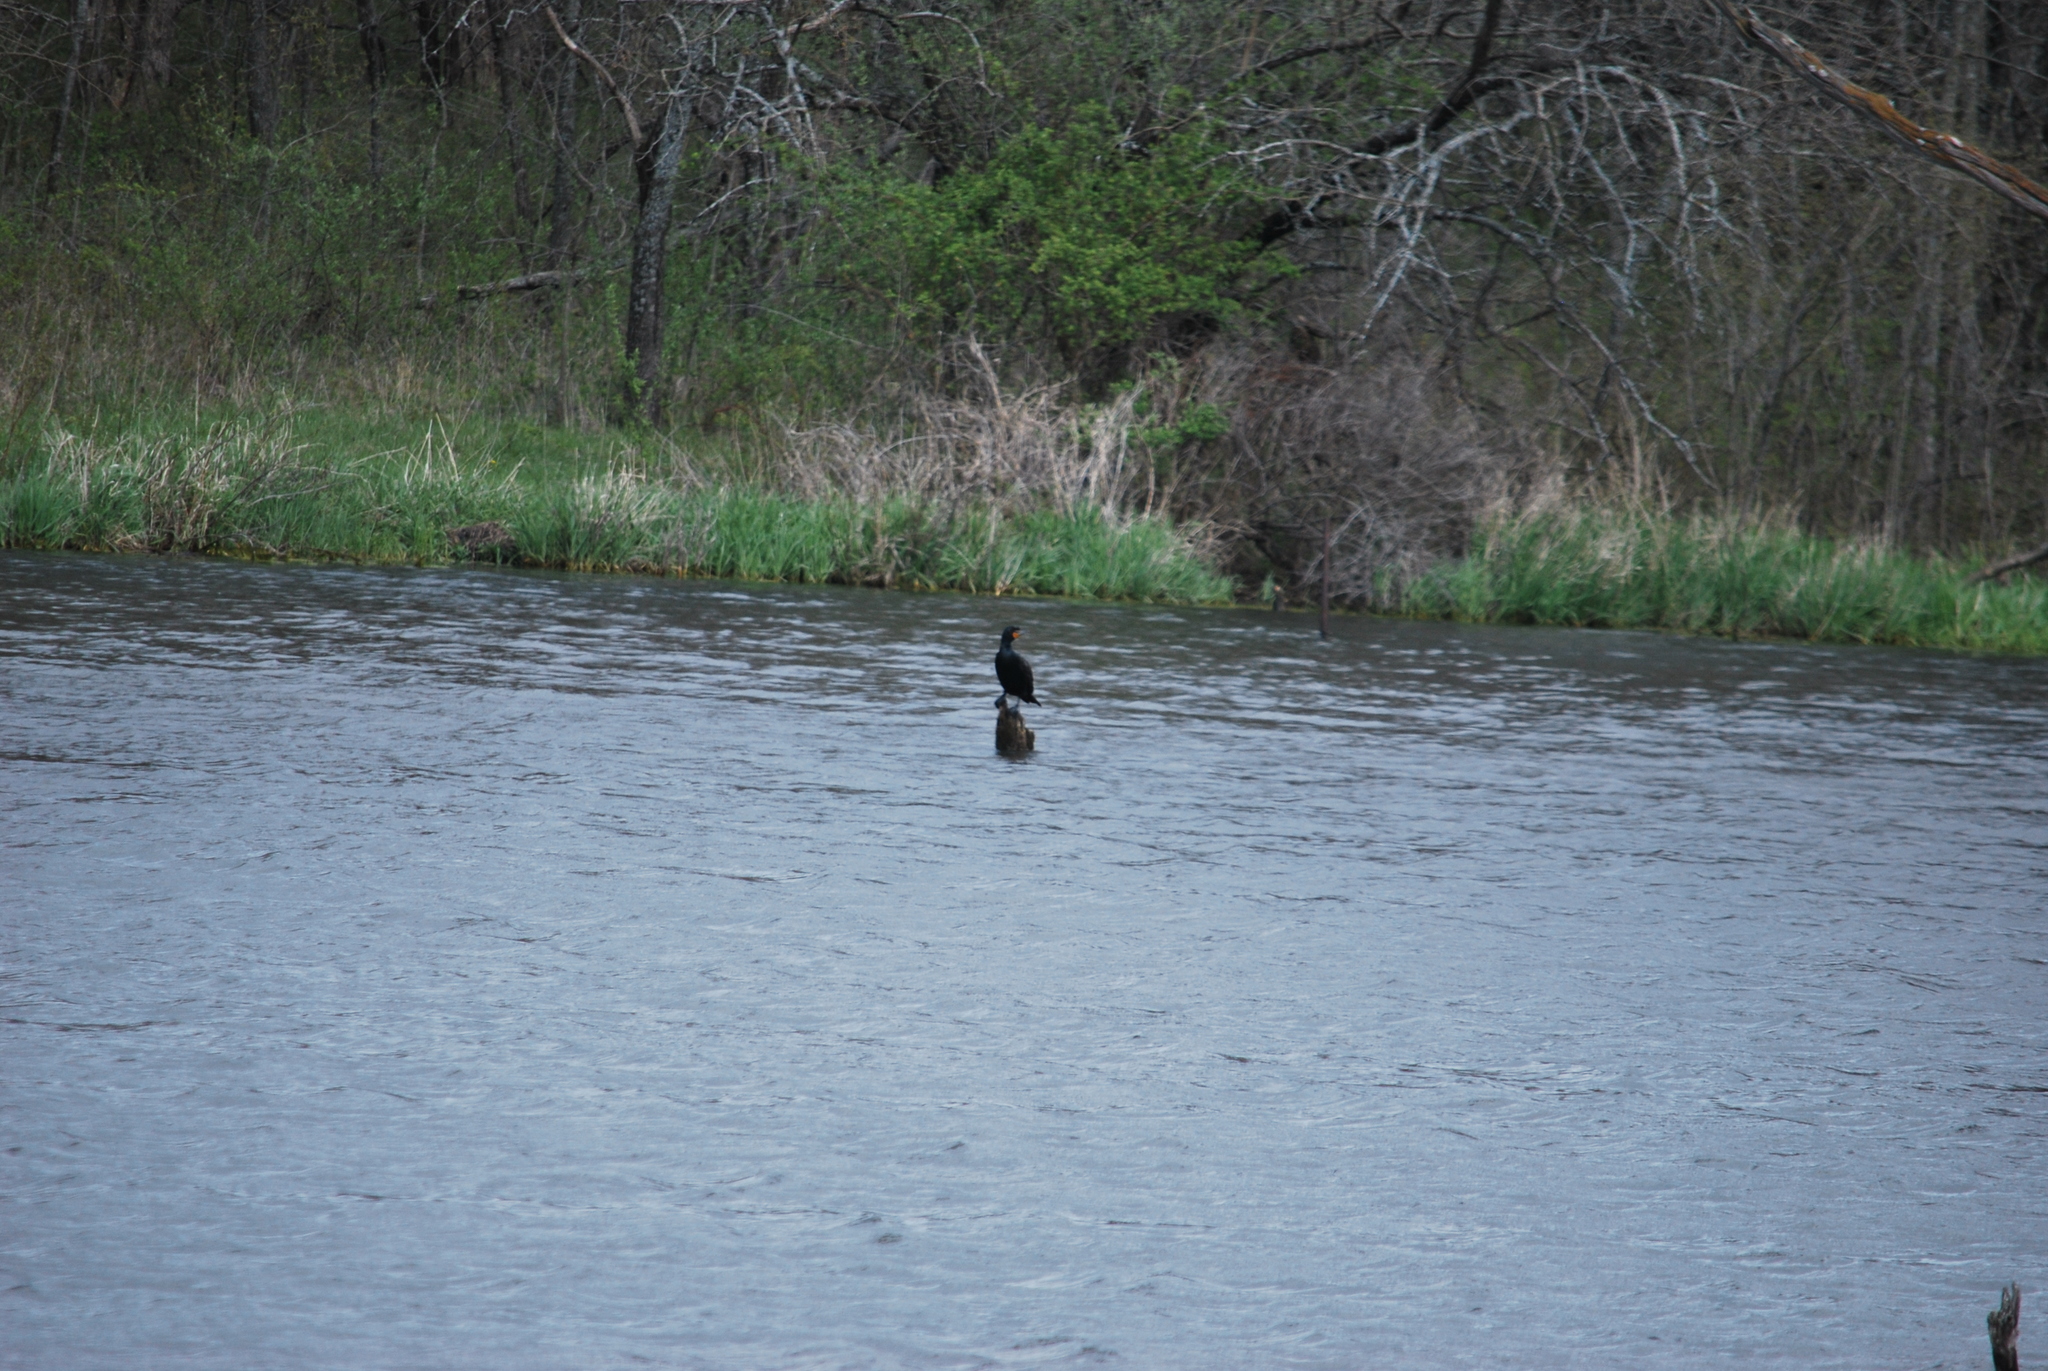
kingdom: Animalia
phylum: Chordata
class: Aves
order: Suliformes
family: Phalacrocoracidae
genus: Phalacrocorax
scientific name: Phalacrocorax auritus
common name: Double-crested cormorant
